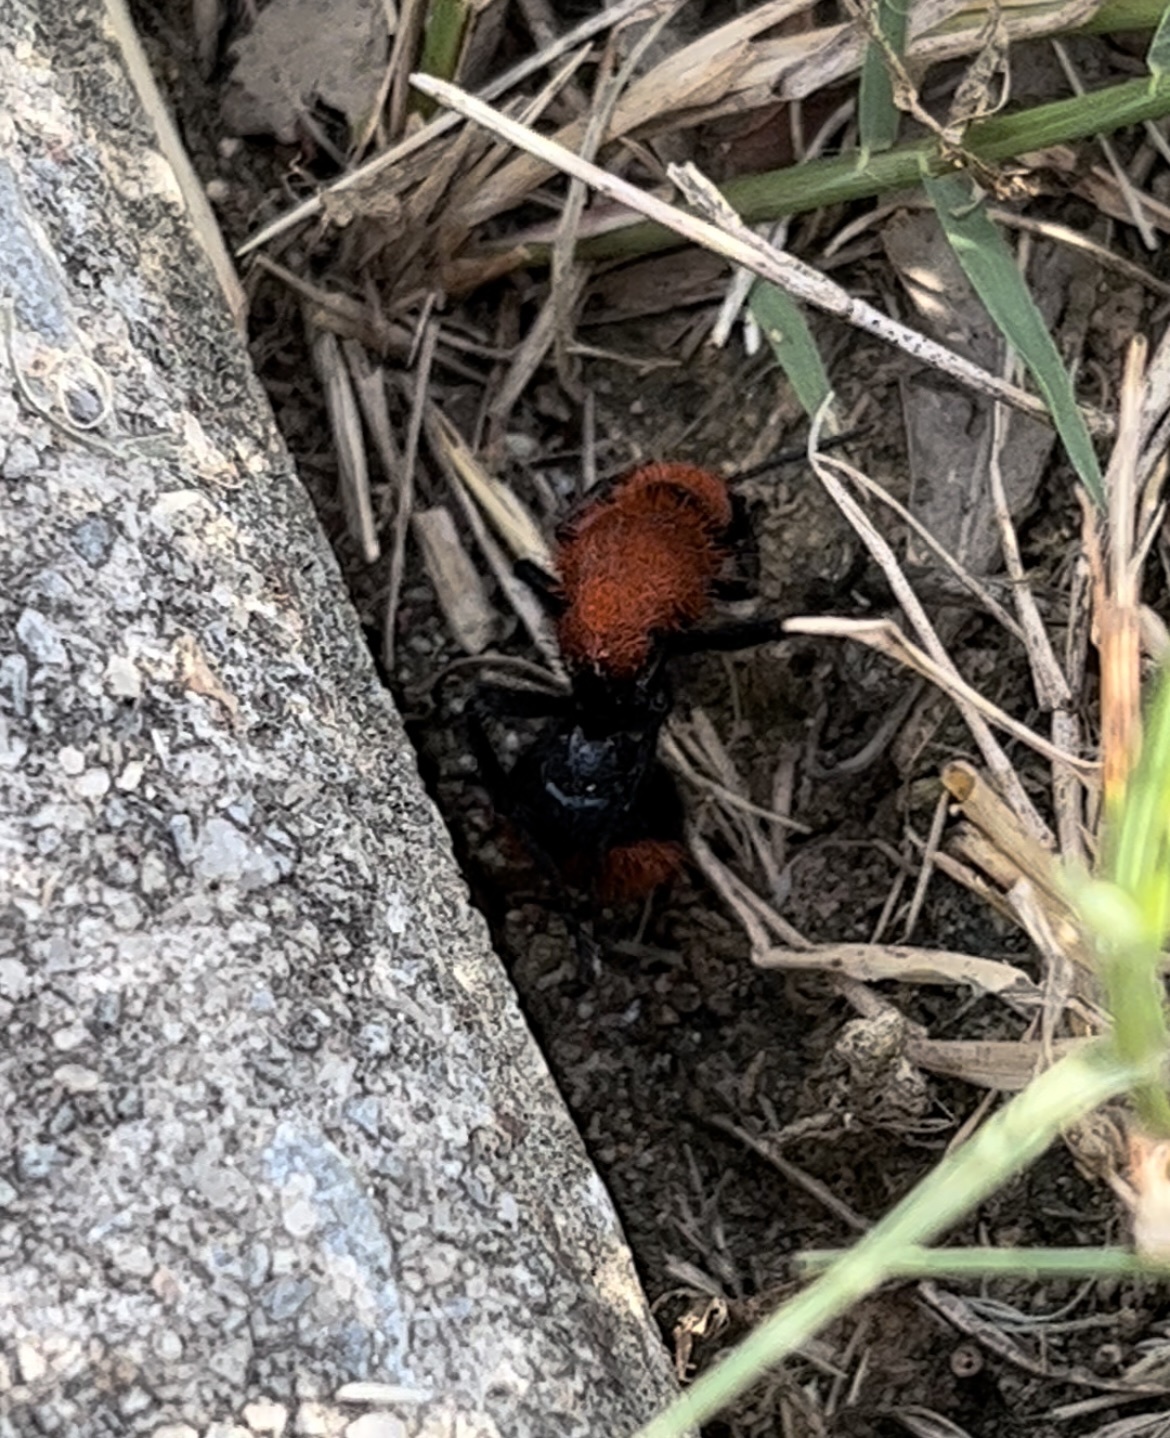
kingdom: Animalia
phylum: Arthropoda
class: Insecta
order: Hymenoptera
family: Mutillidae
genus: Dasymutilla
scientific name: Dasymutilla occidentalis
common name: Common eastern velvet ant
